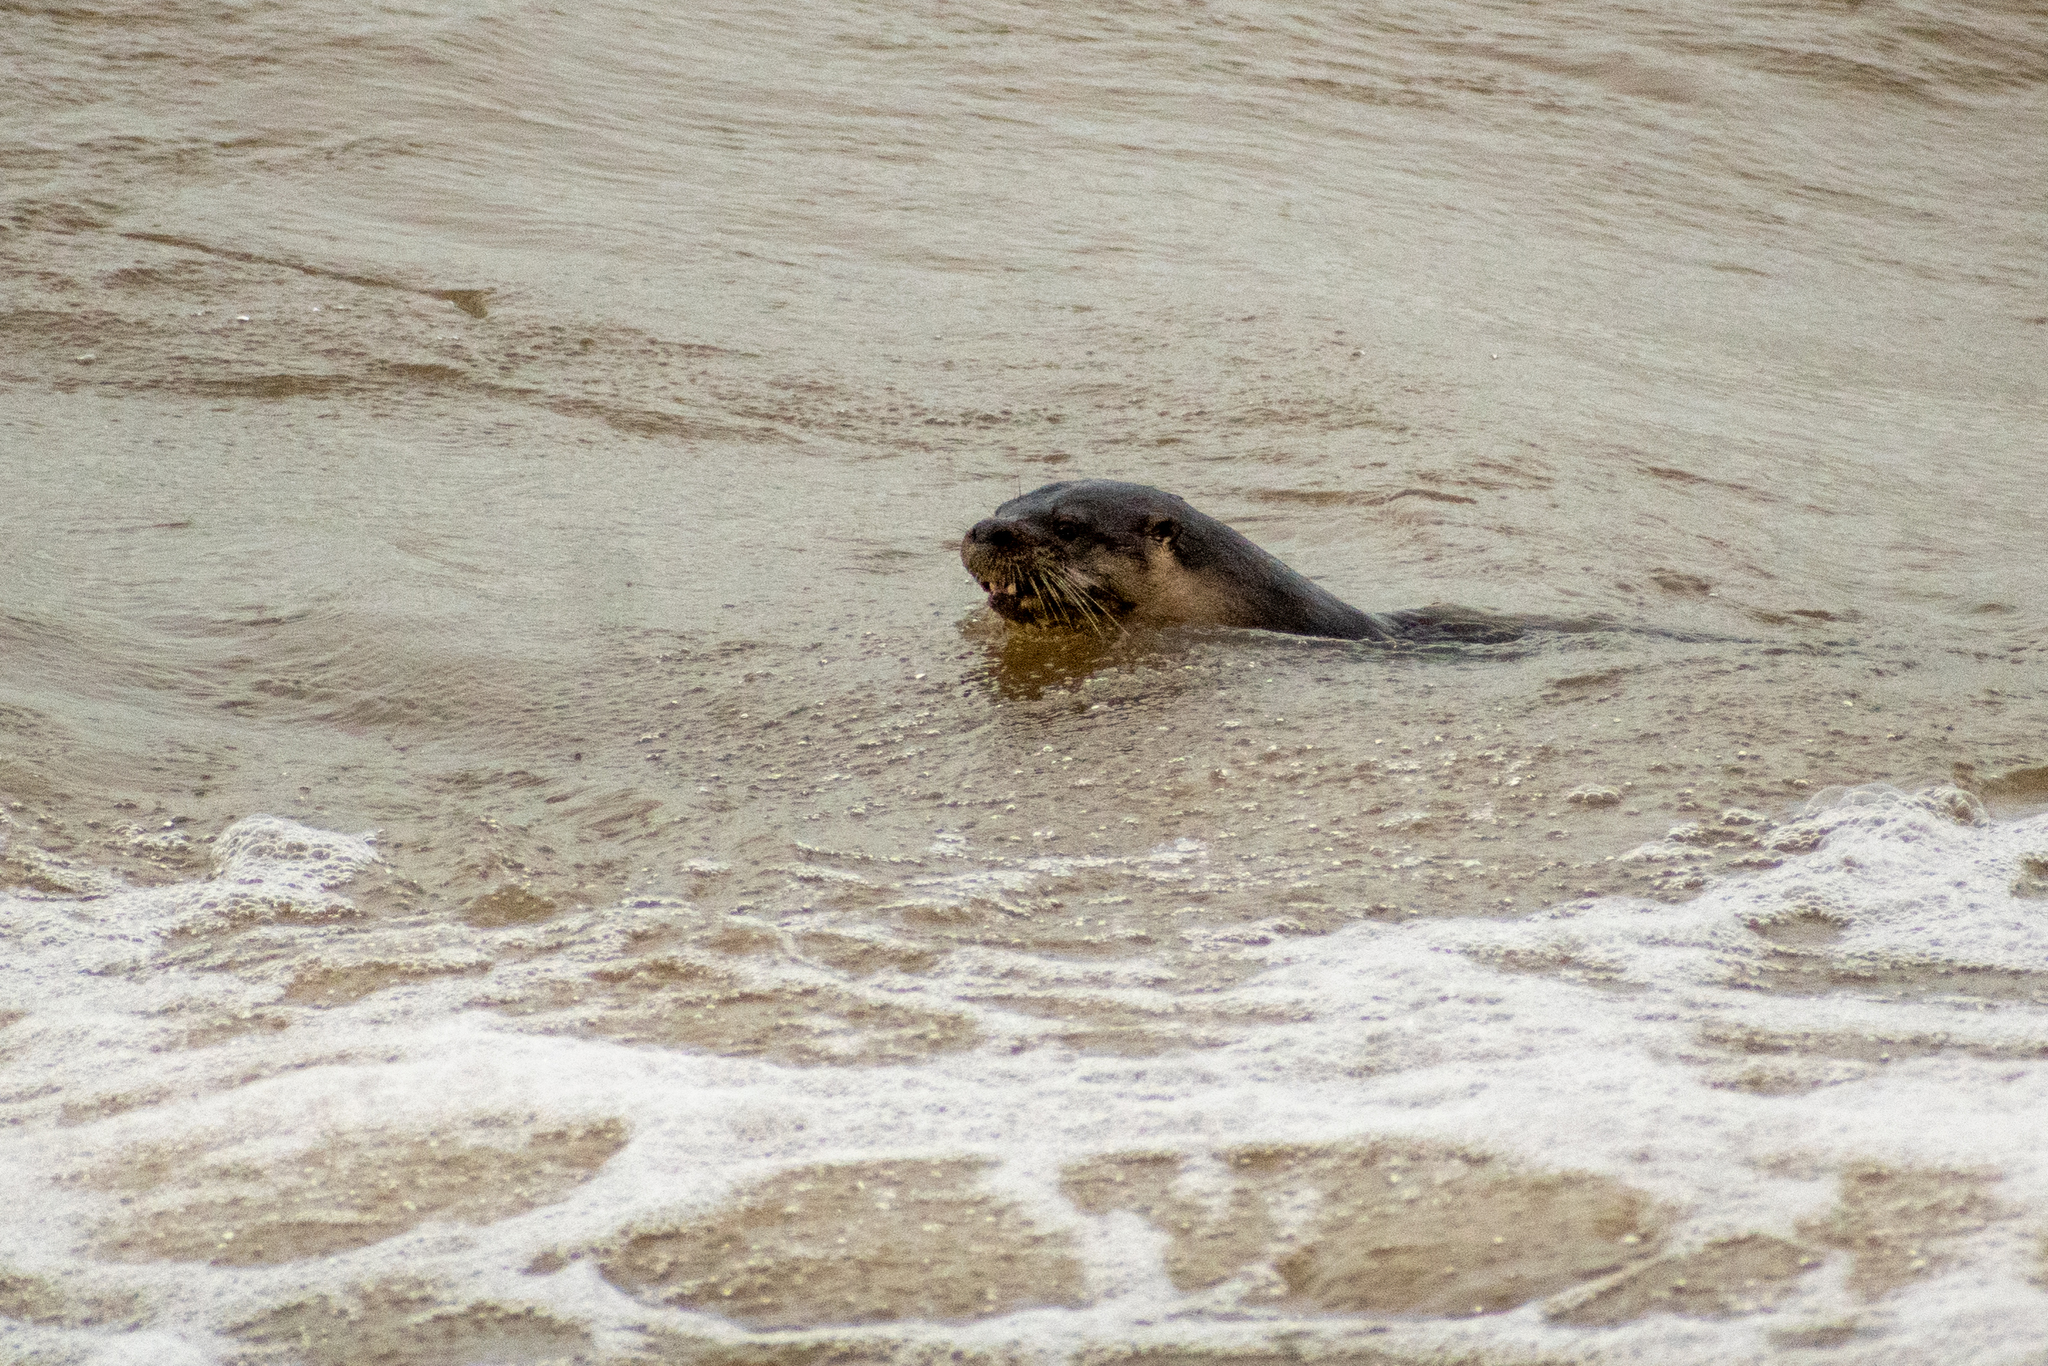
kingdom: Animalia
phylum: Chordata
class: Mammalia
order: Carnivora
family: Mustelidae
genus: Lontra
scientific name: Lontra longicaudis
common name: Neotropical otter
